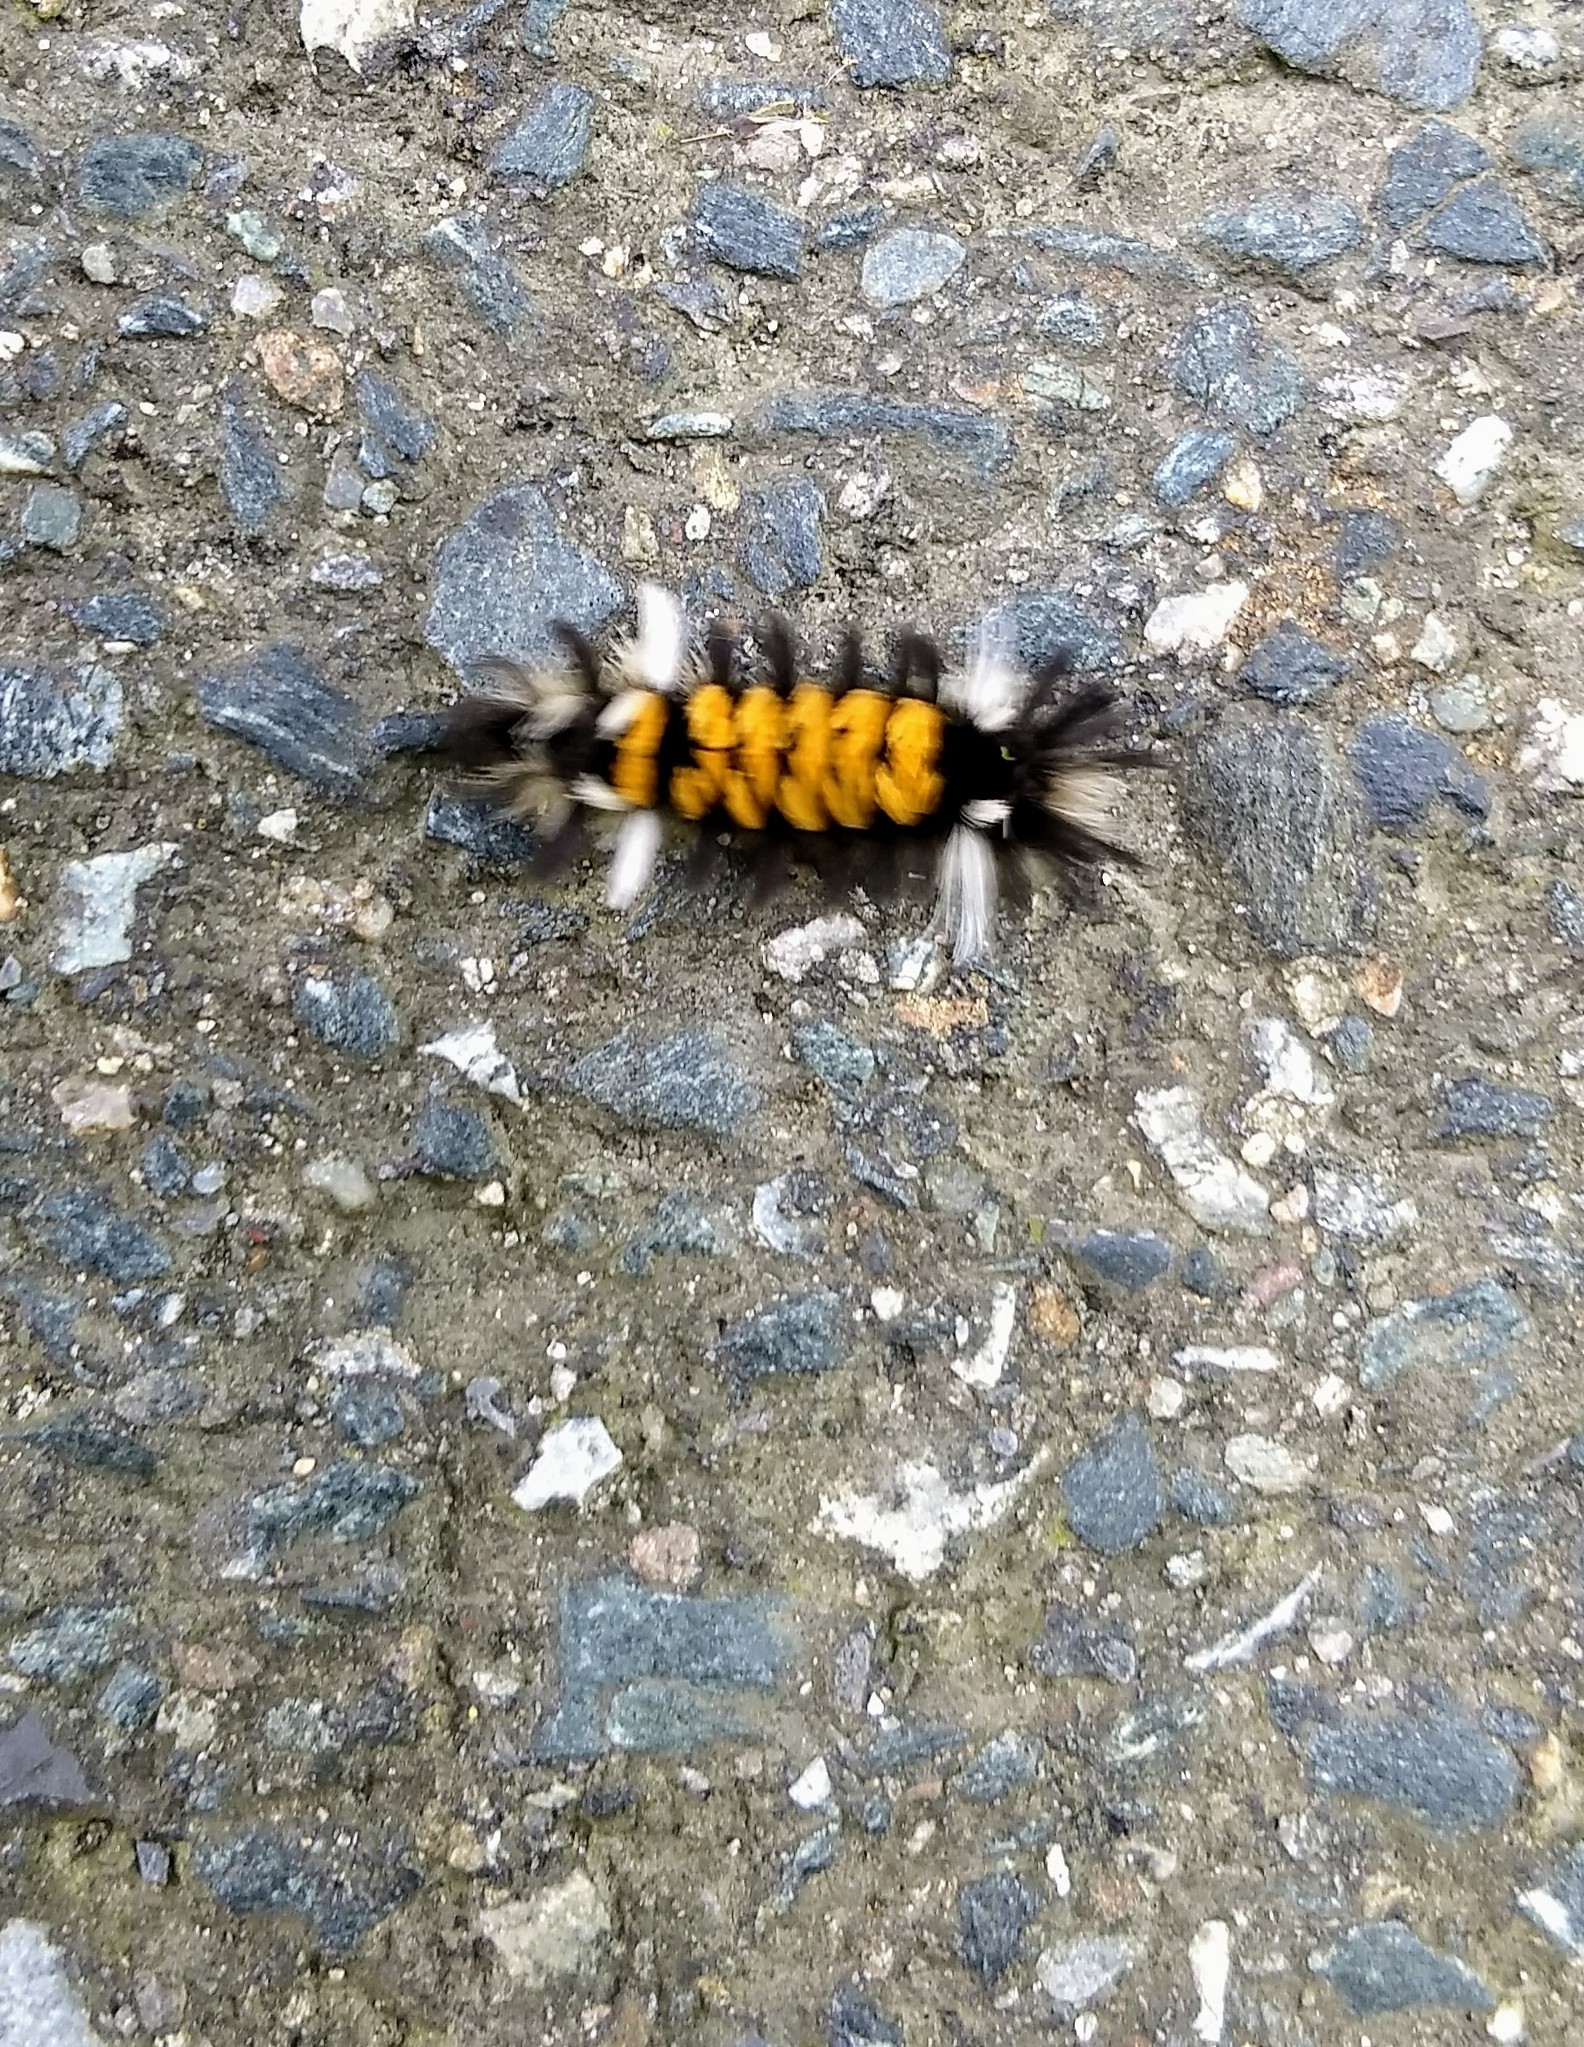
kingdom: Animalia
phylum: Arthropoda
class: Insecta
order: Lepidoptera
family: Erebidae
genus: Euchaetes
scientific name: Euchaetes egle
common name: Milkweed tussock moth
